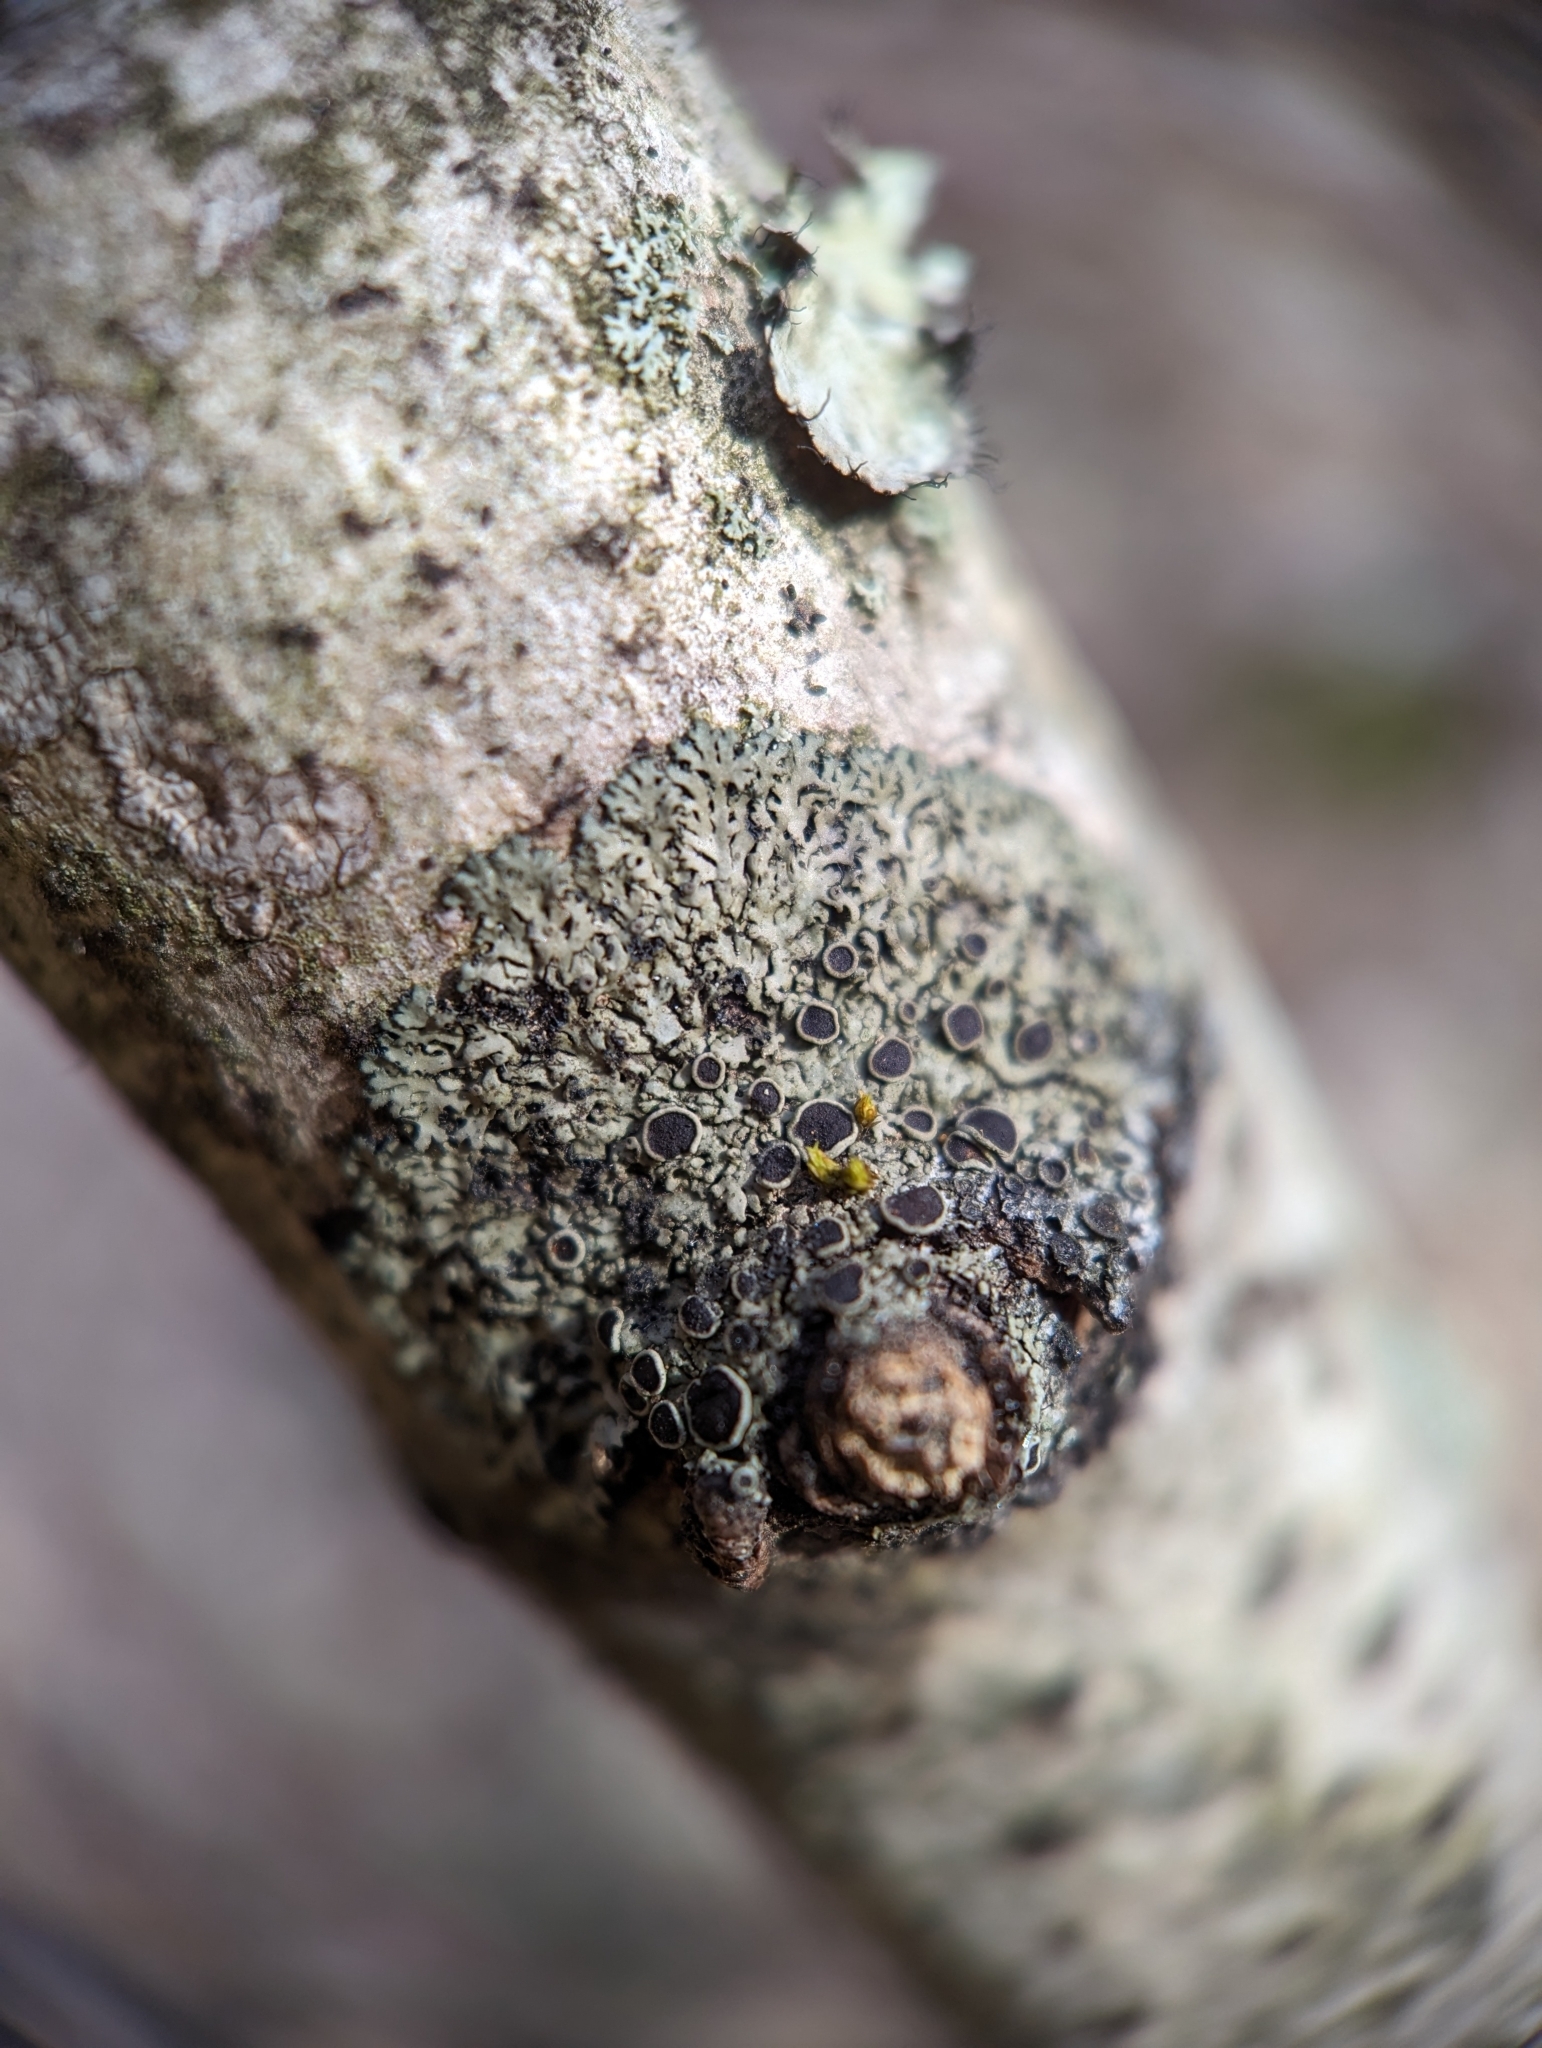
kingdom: Fungi
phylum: Ascomycota
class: Lecanoromycetes
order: Caliciales
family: Physciaceae
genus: Phaeophyscia
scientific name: Phaeophyscia ciliata
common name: Smooth shadow lichen
